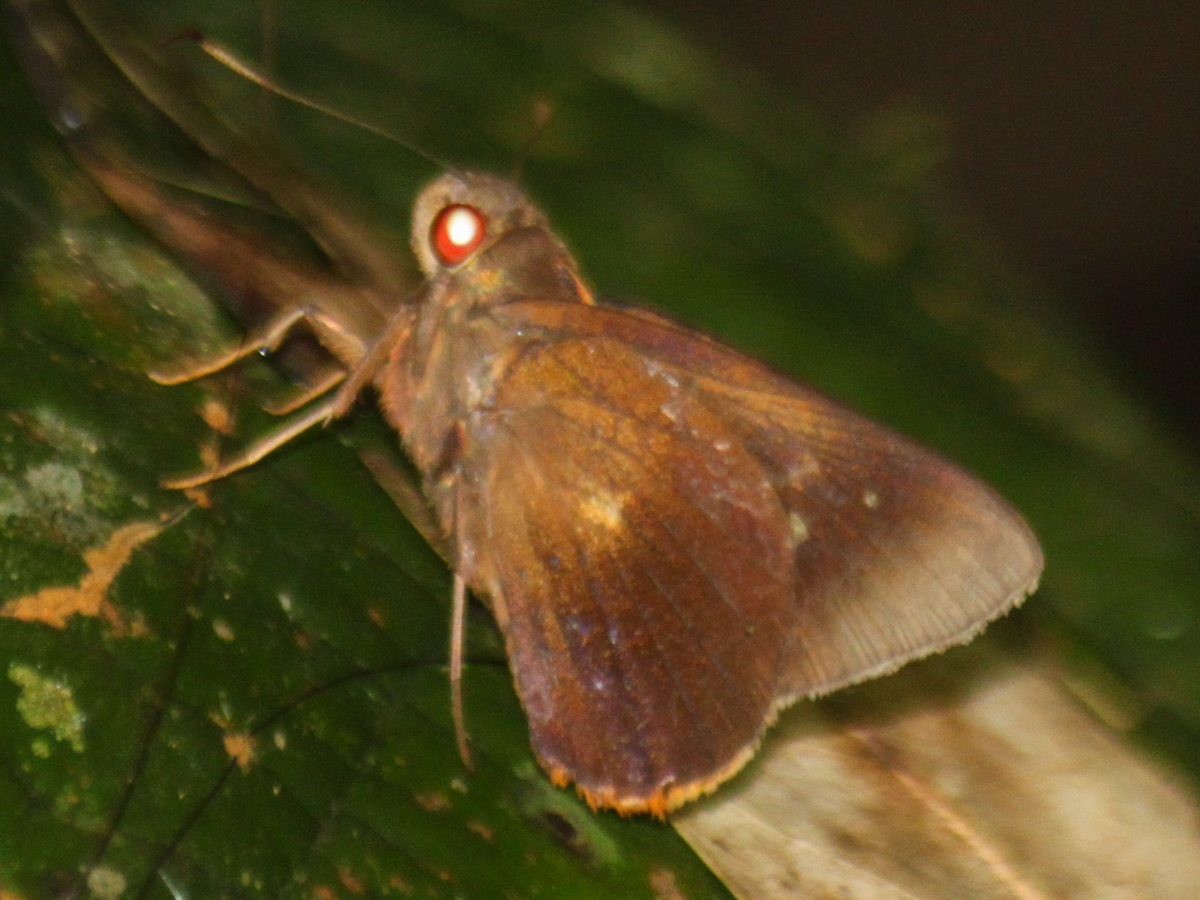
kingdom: Animalia
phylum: Arthropoda
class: Insecta
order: Lepidoptera
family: Hesperiidae
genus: Zela
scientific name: Zela zeus
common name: Orange-ciliate palmer
